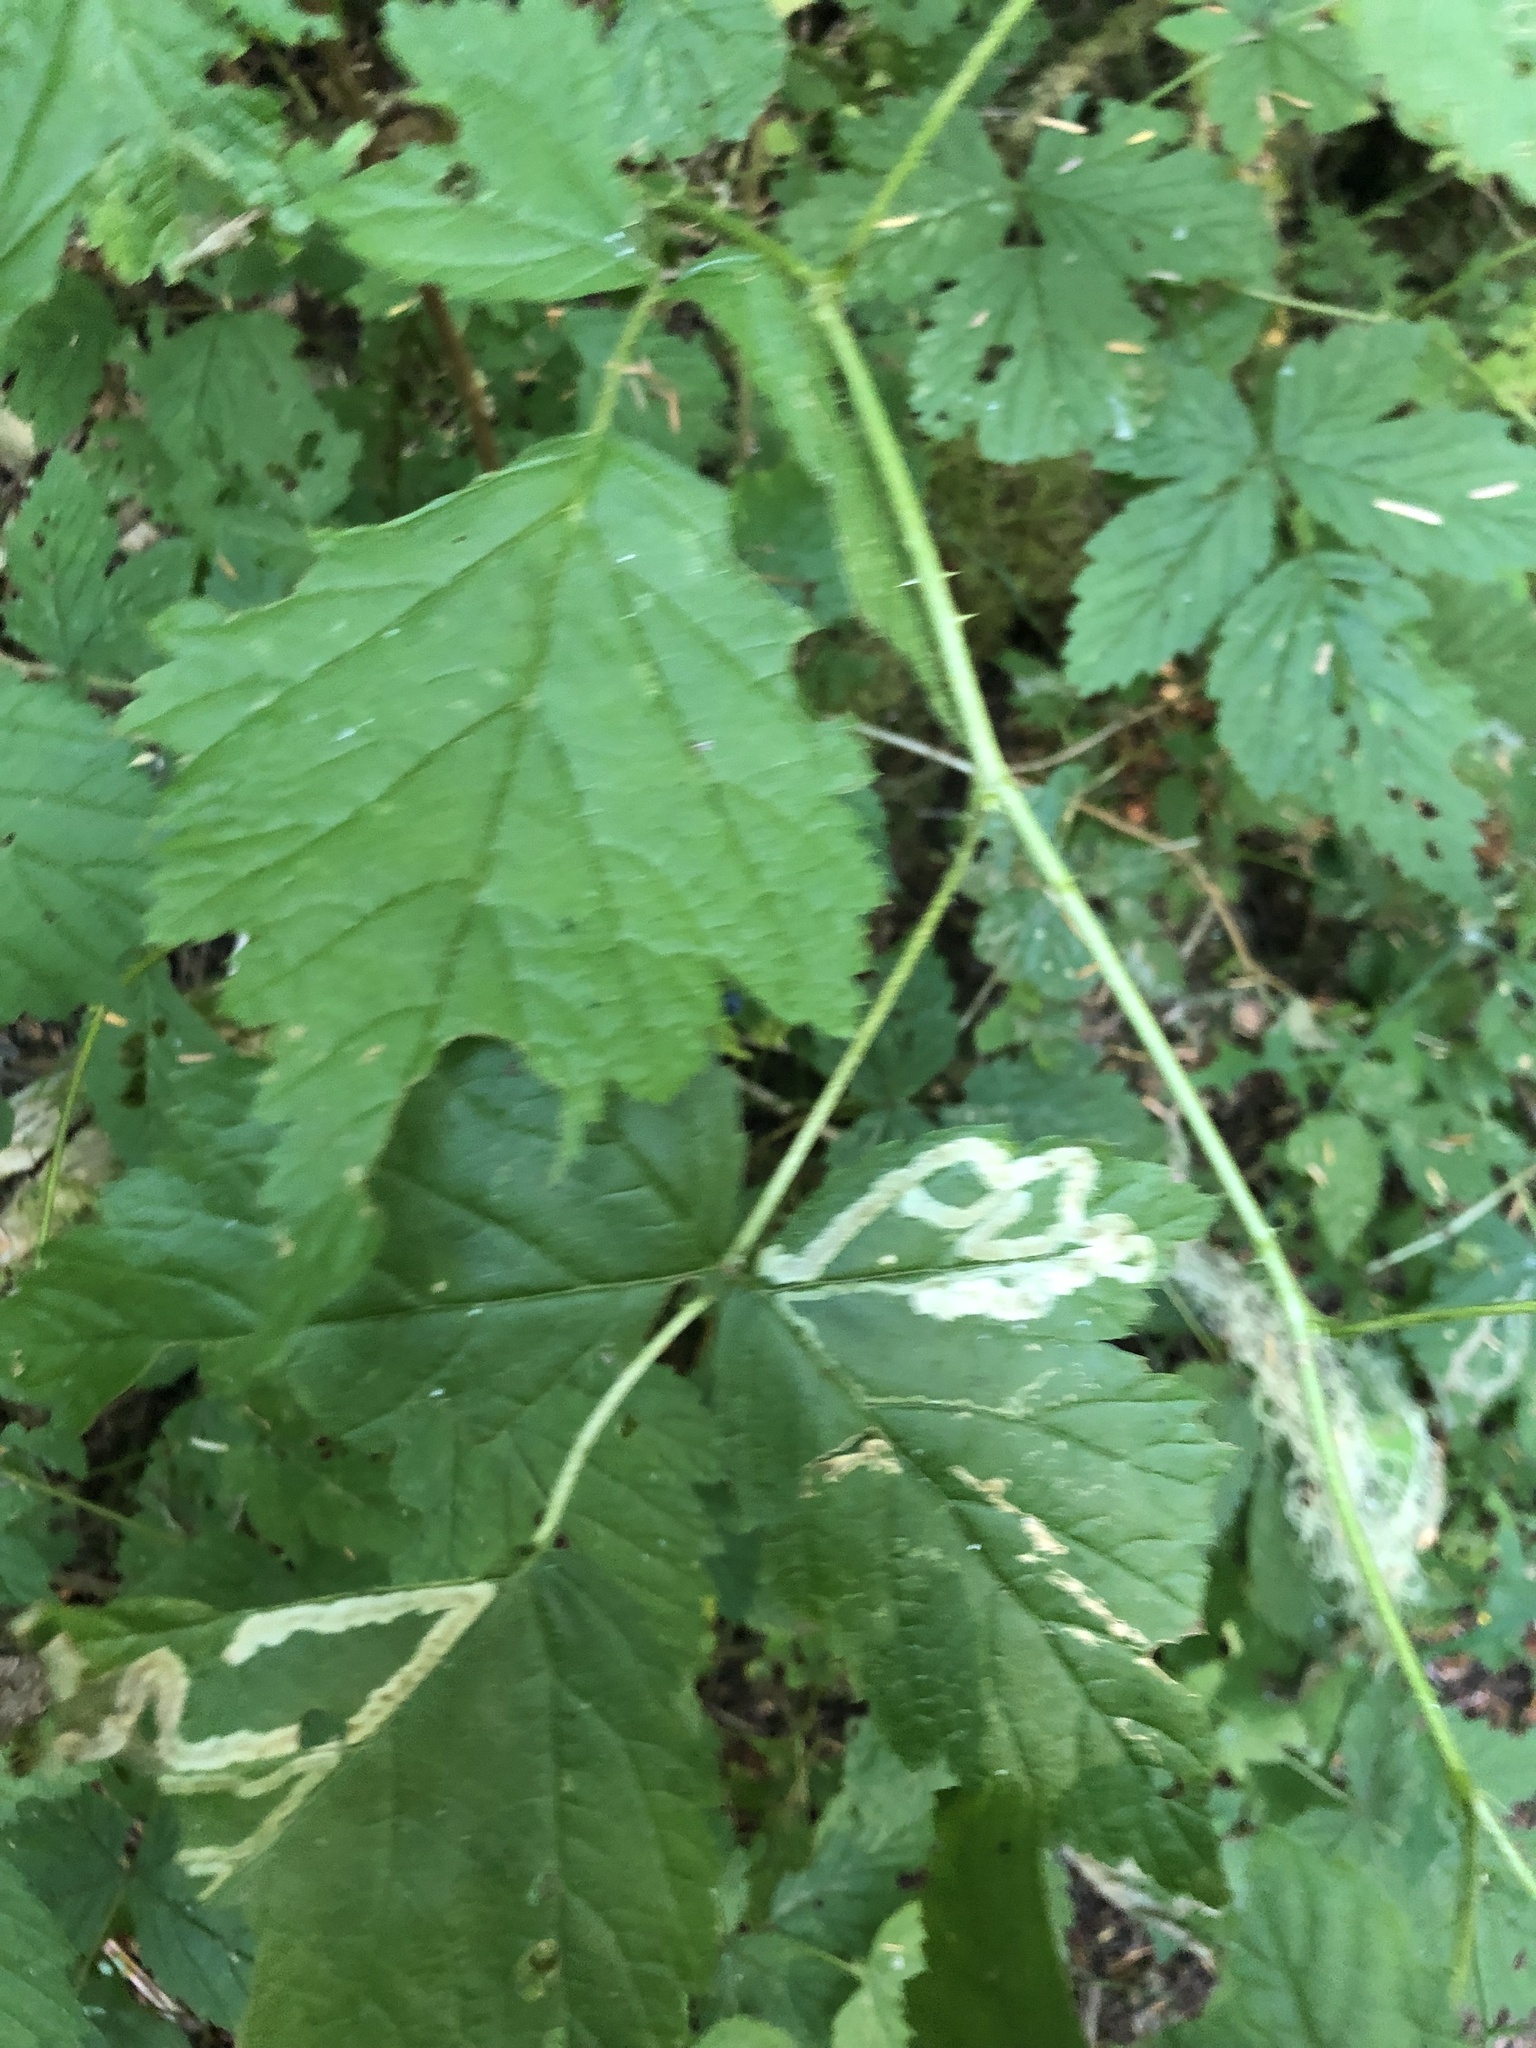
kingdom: Plantae
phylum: Tracheophyta
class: Magnoliopsida
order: Rosales
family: Rosaceae
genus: Rubus
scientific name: Rubus spectabilis
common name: Salmonberry
